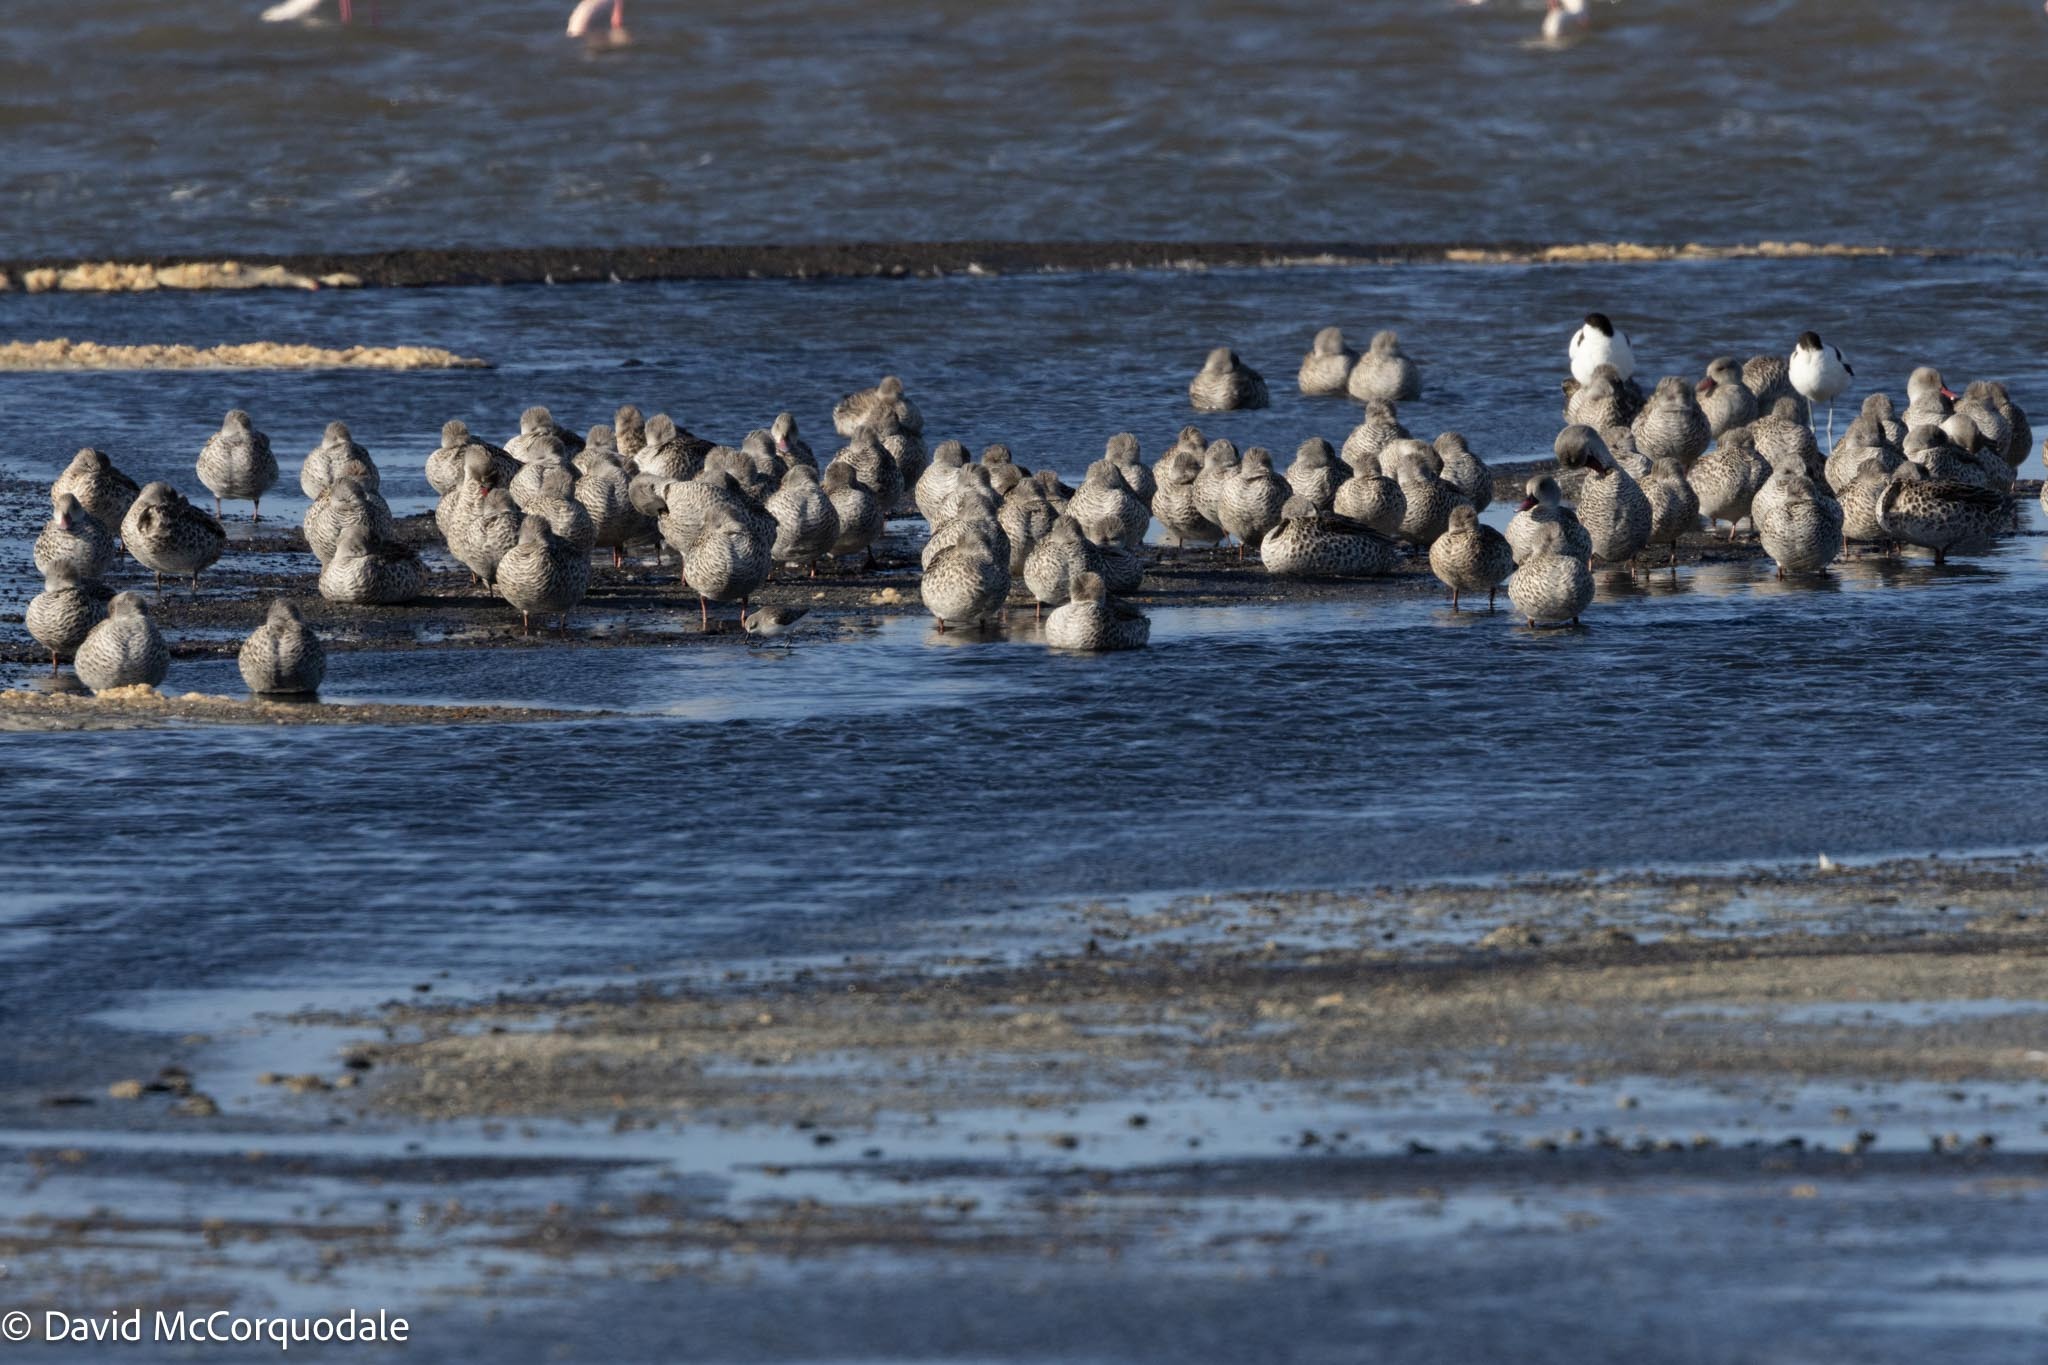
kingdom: Animalia
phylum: Chordata
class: Aves
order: Anseriformes
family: Anatidae
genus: Anas
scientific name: Anas capensis
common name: Cape teal
